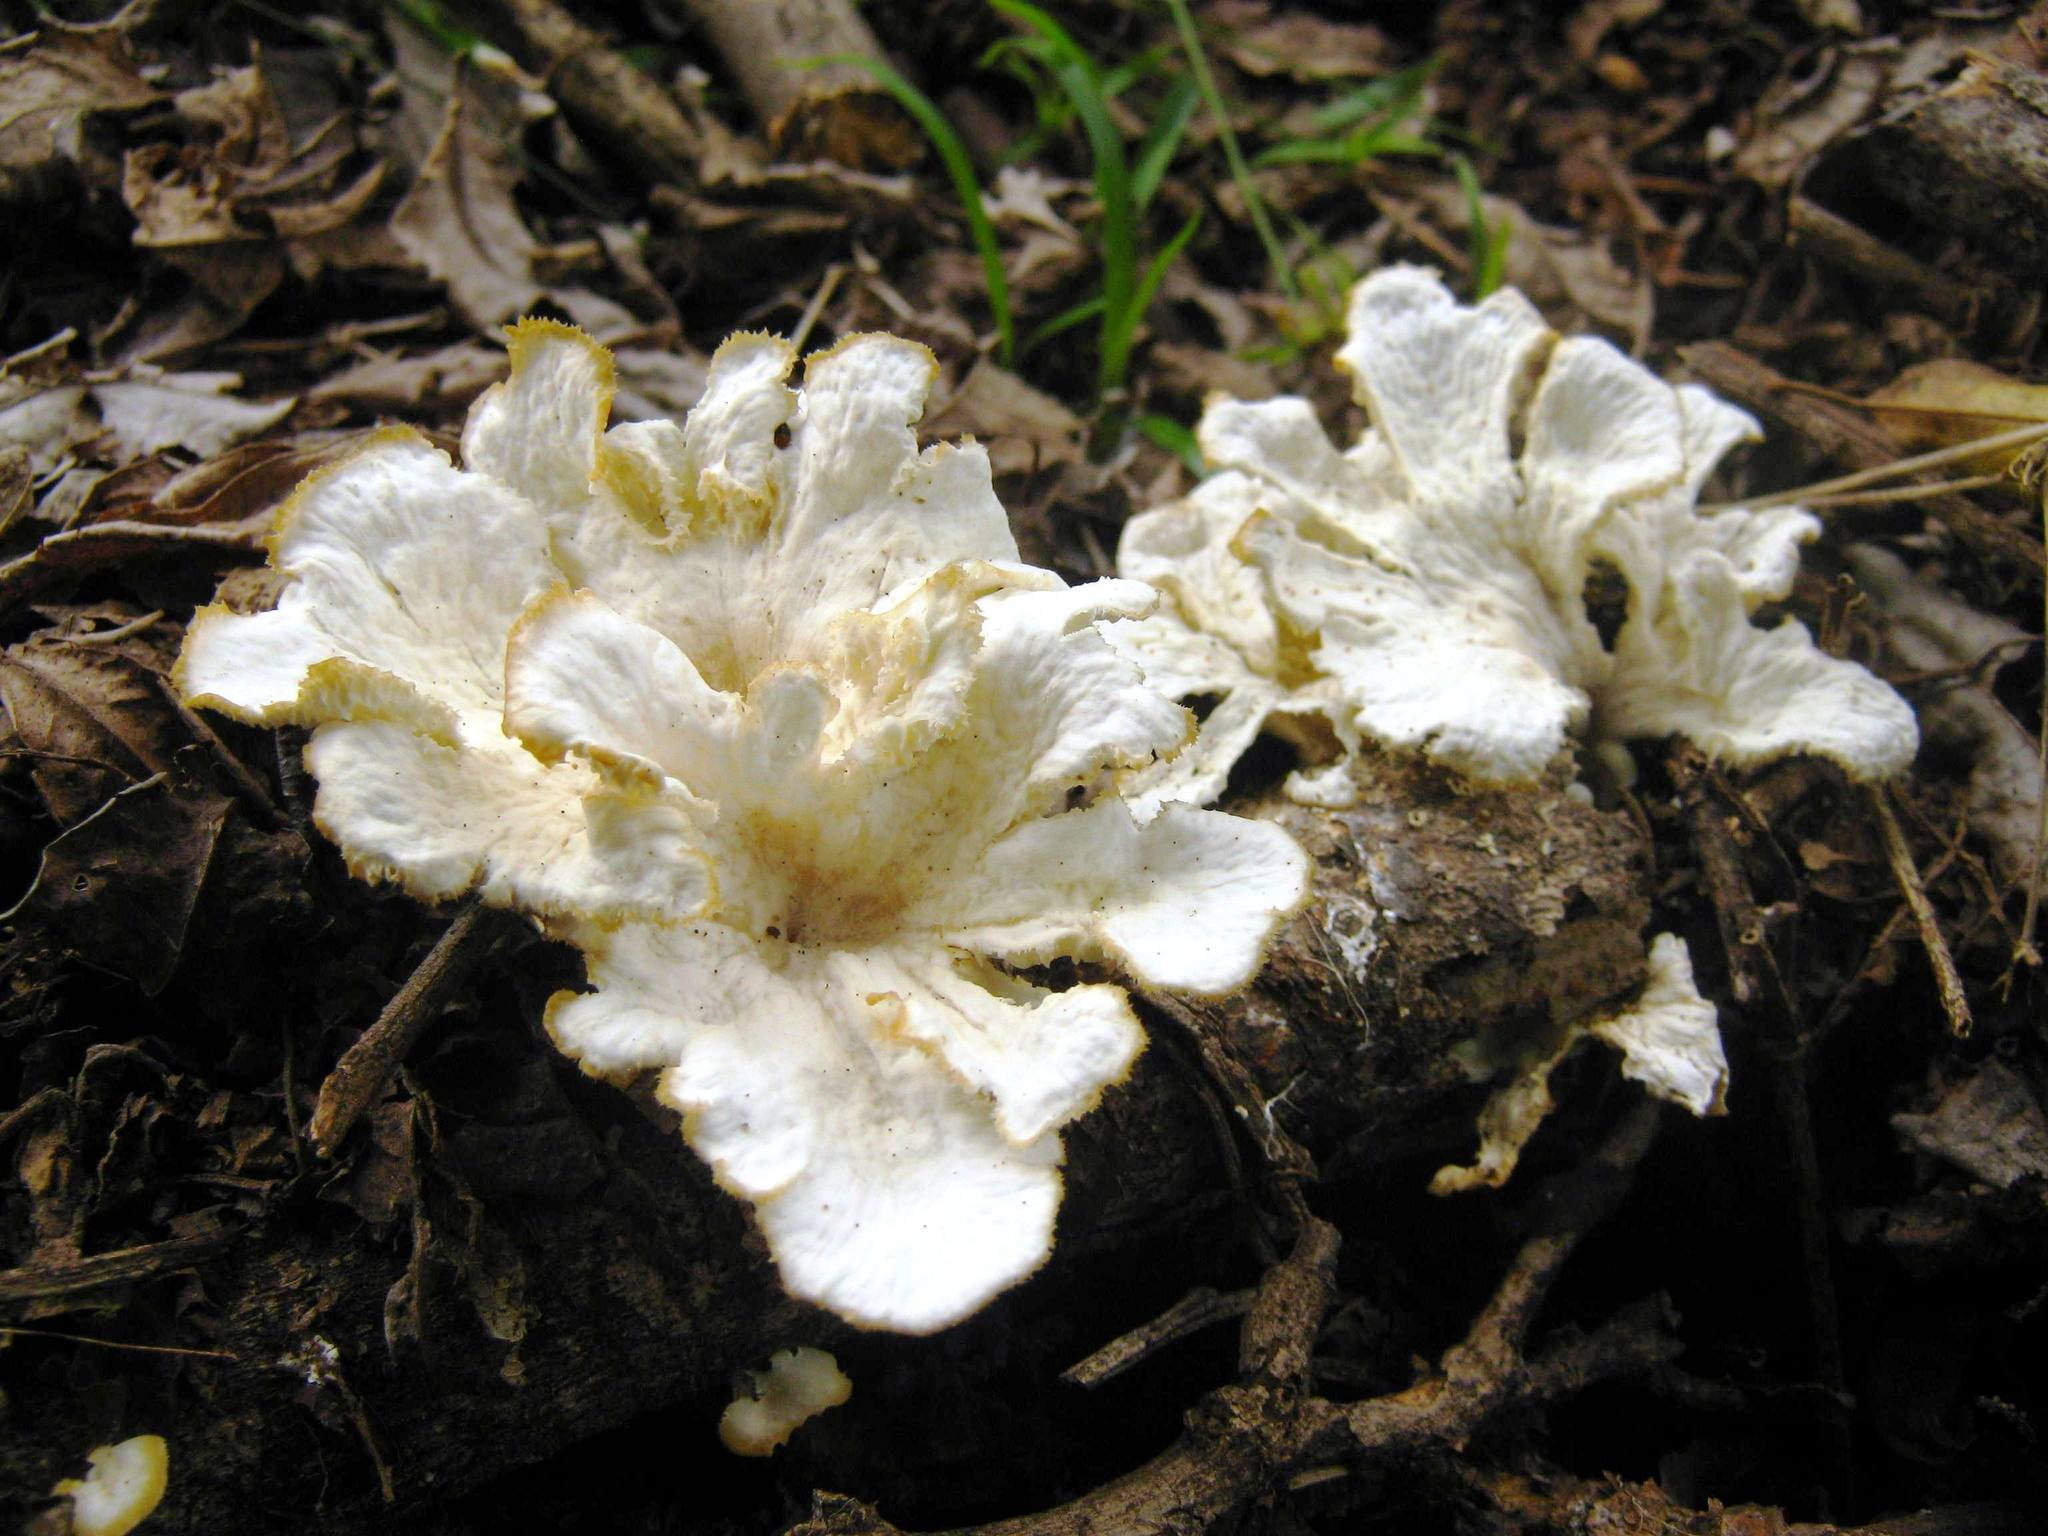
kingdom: Fungi
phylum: Basidiomycota
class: Agaricomycetes
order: Polyporales
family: Polyporaceae
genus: Favolus
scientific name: Favolus tenuiculus
